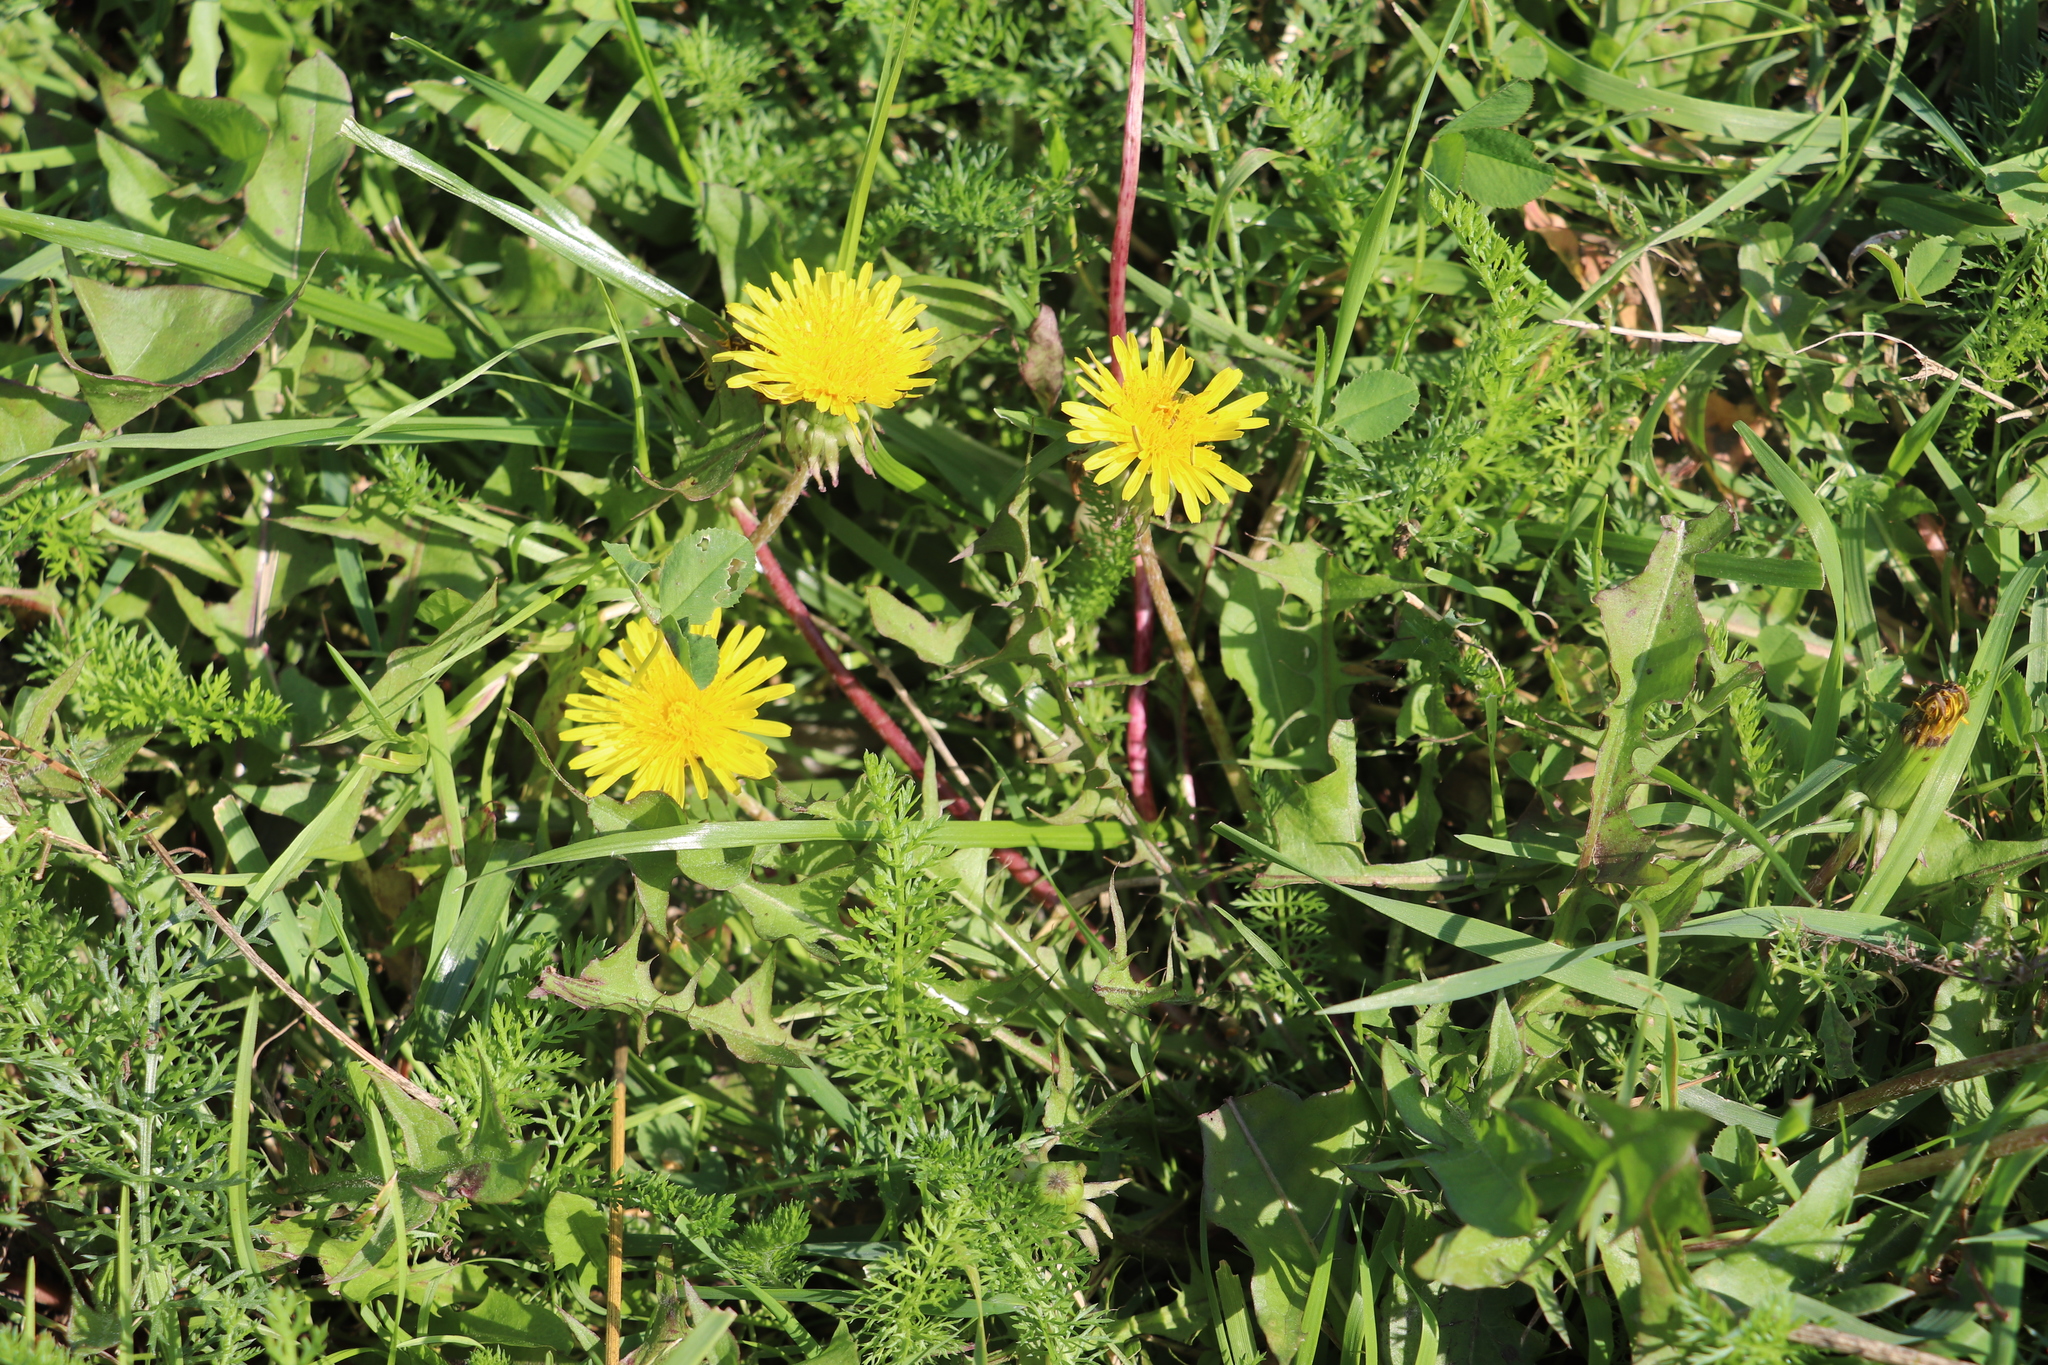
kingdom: Plantae
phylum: Tracheophyta
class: Magnoliopsida
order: Asterales
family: Asteraceae
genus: Taraxacum
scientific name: Taraxacum officinale
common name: Common dandelion
